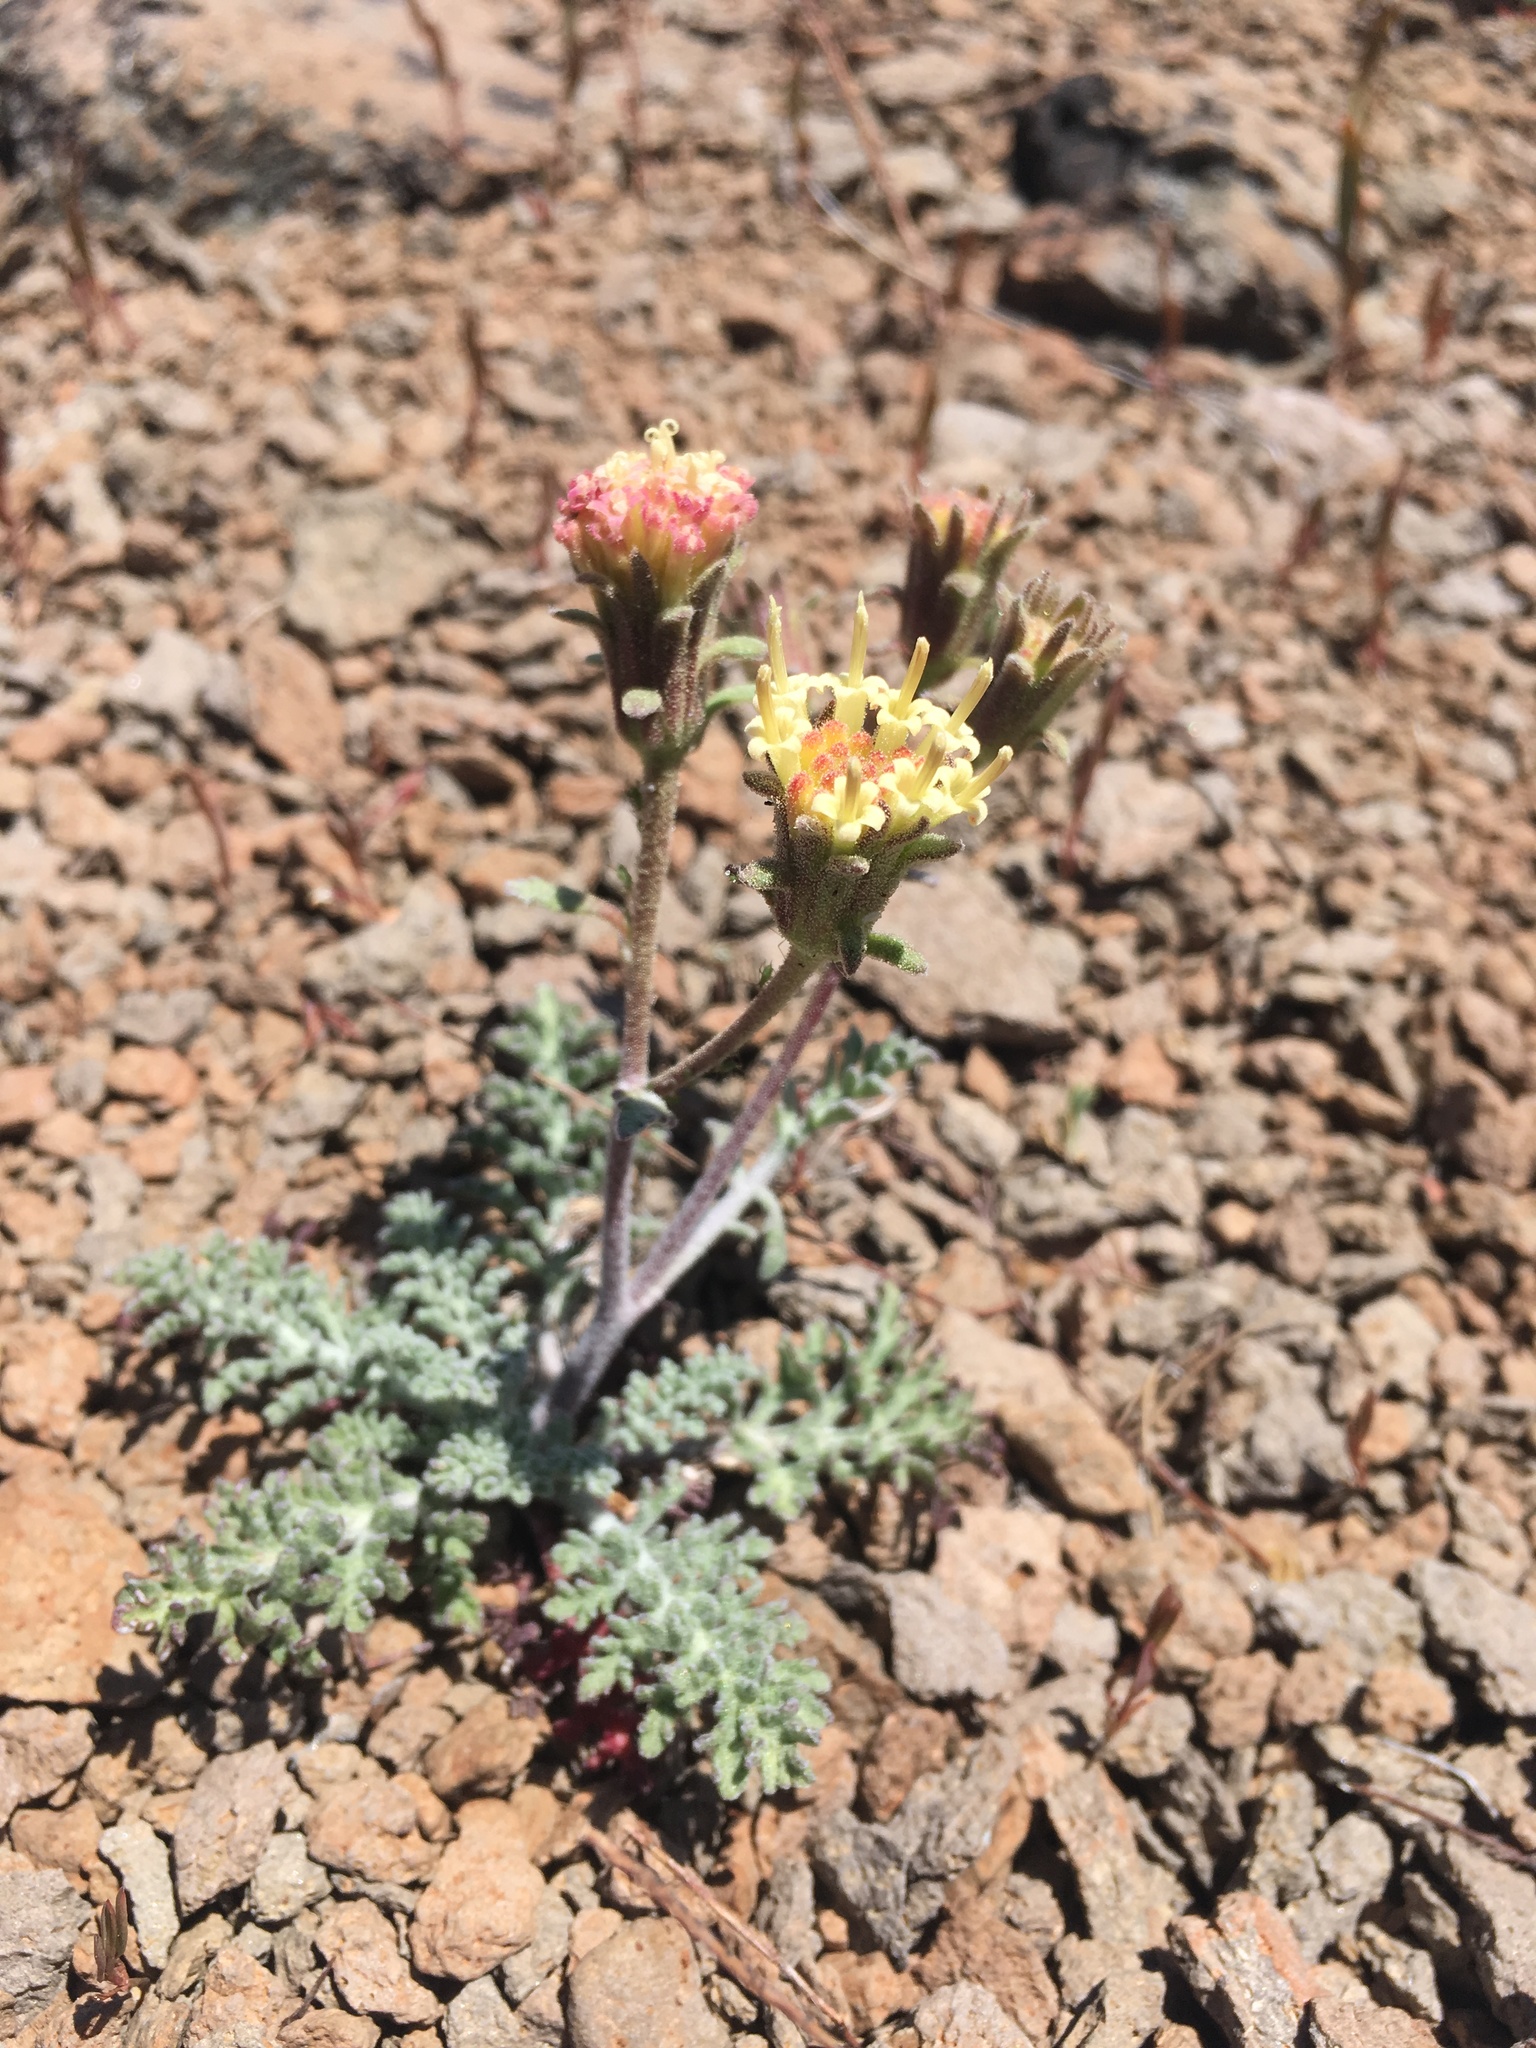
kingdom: Plantae
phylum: Tracheophyta
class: Magnoliopsida
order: Asterales
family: Asteraceae
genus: Chaenactis
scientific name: Chaenactis douglasii
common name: Hoary pincushion
